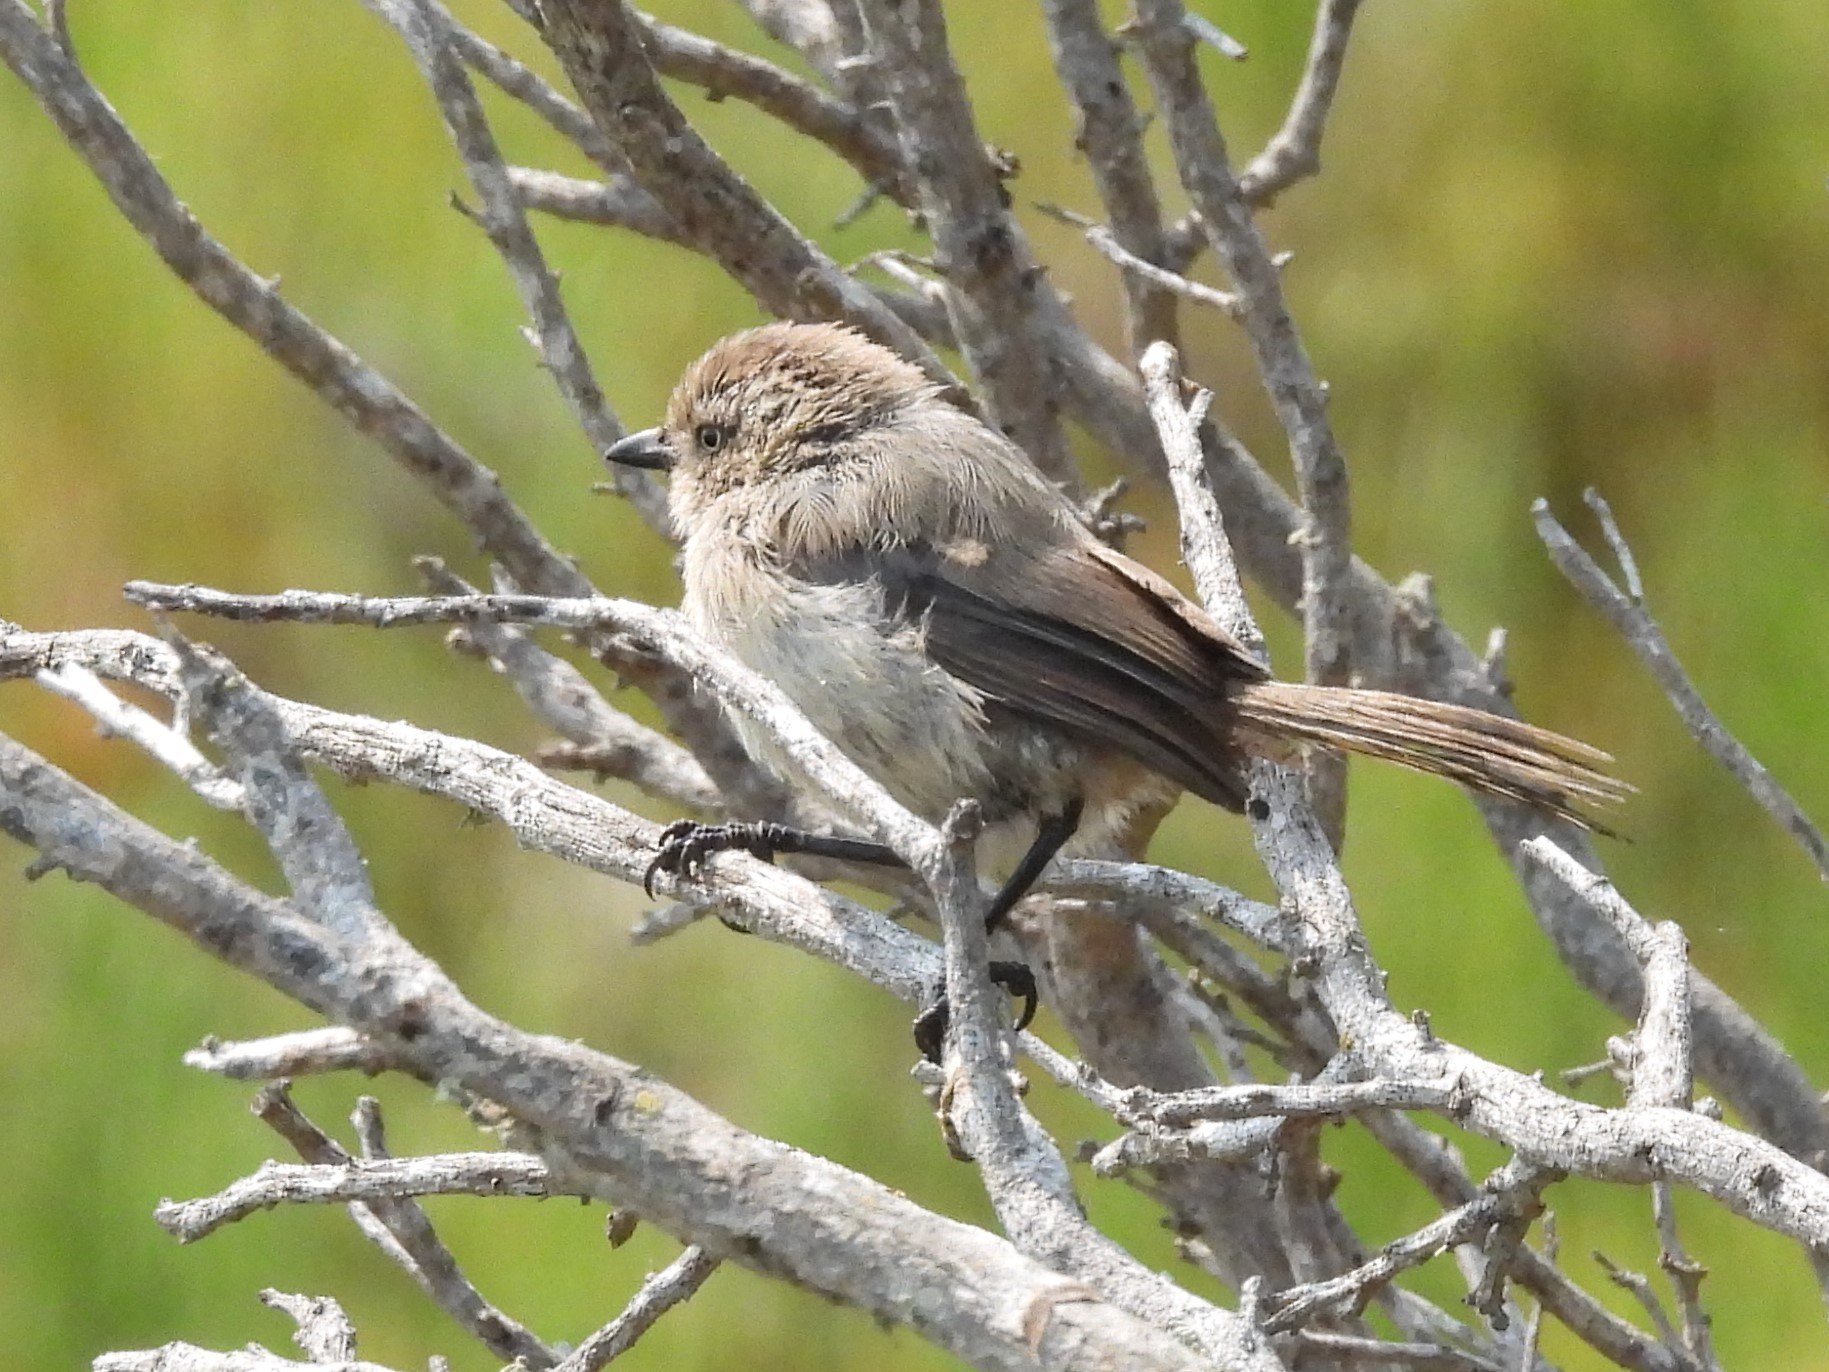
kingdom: Animalia
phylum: Chordata
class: Aves
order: Passeriformes
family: Aegithalidae
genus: Psaltriparus
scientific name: Psaltriparus minimus
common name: American bushtit
